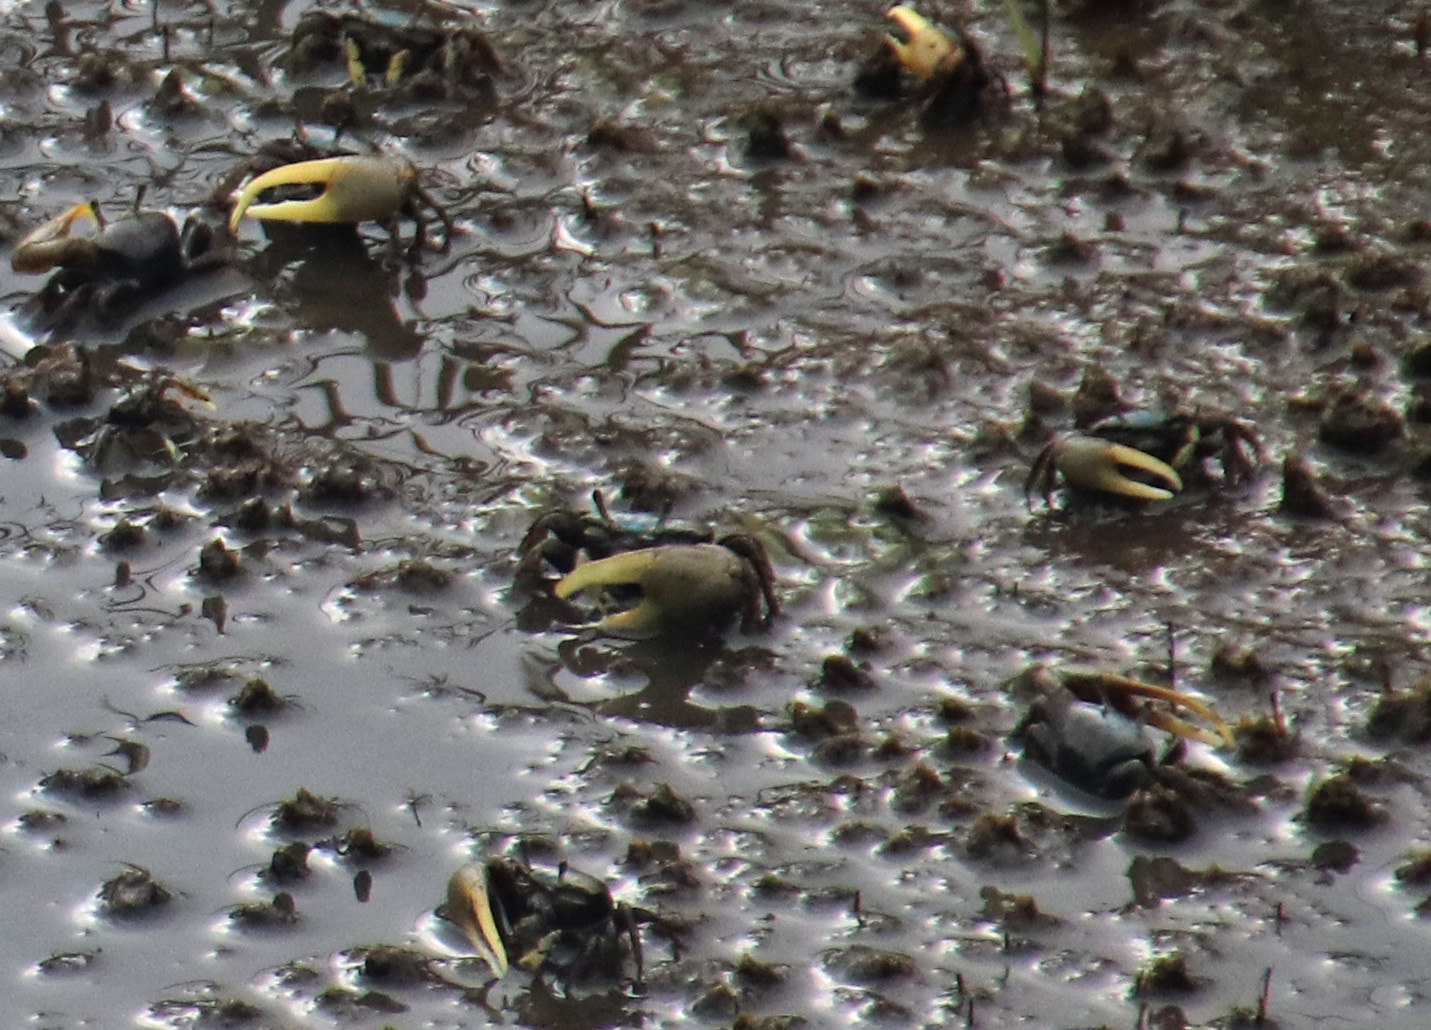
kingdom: Animalia
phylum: Arthropoda
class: Malacostraca
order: Decapoda
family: Ocypodidae
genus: Minuca
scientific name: Minuca pugnax
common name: Mud fiddler crab
